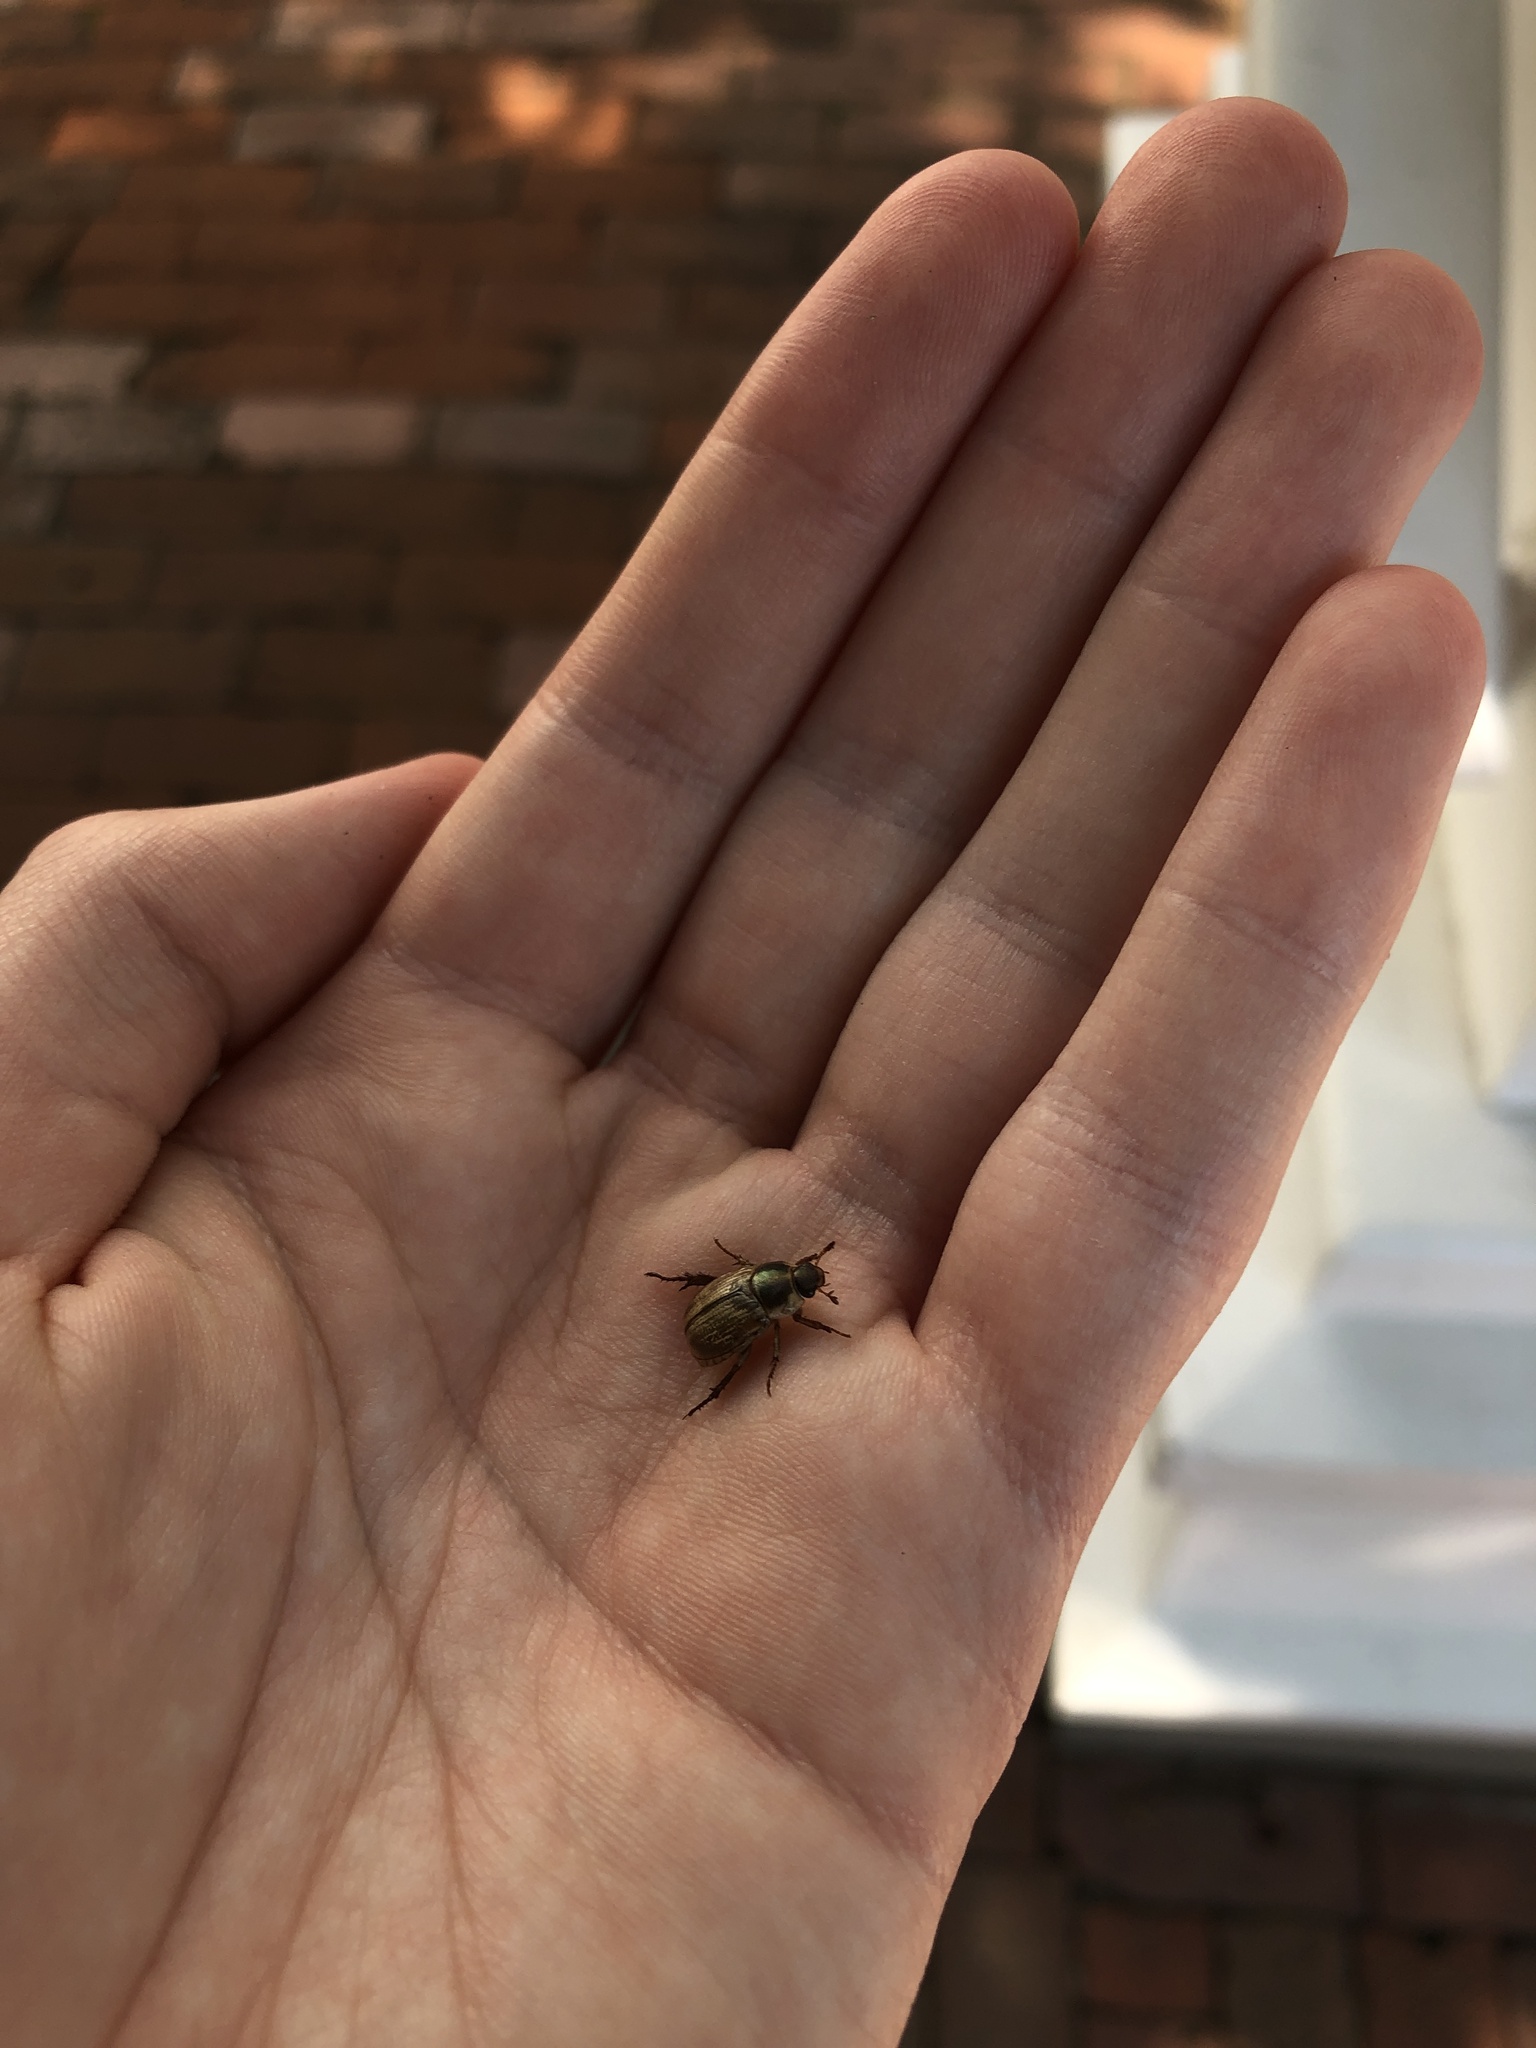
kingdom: Animalia
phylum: Arthropoda
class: Insecta
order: Coleoptera
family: Scarabaeidae
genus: Exomala
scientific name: Exomala orientalis
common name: Oriental beetle
